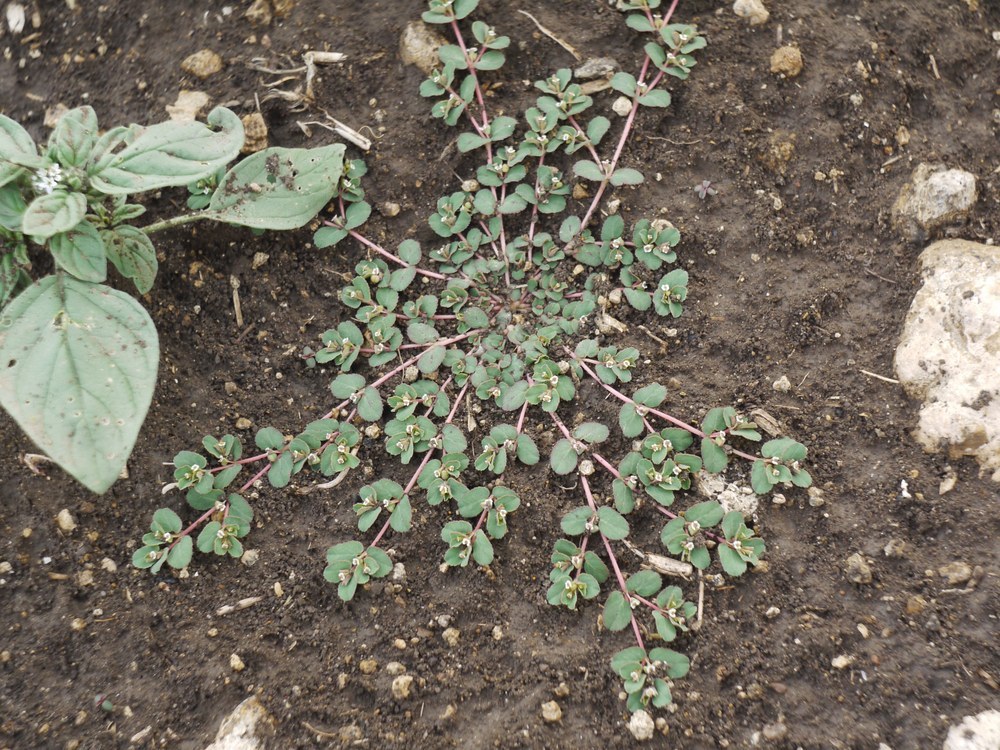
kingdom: Plantae
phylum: Tracheophyta
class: Magnoliopsida
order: Malpighiales
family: Euphorbiaceae
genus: Euphorbia
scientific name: Euphorbia chamaesyce
